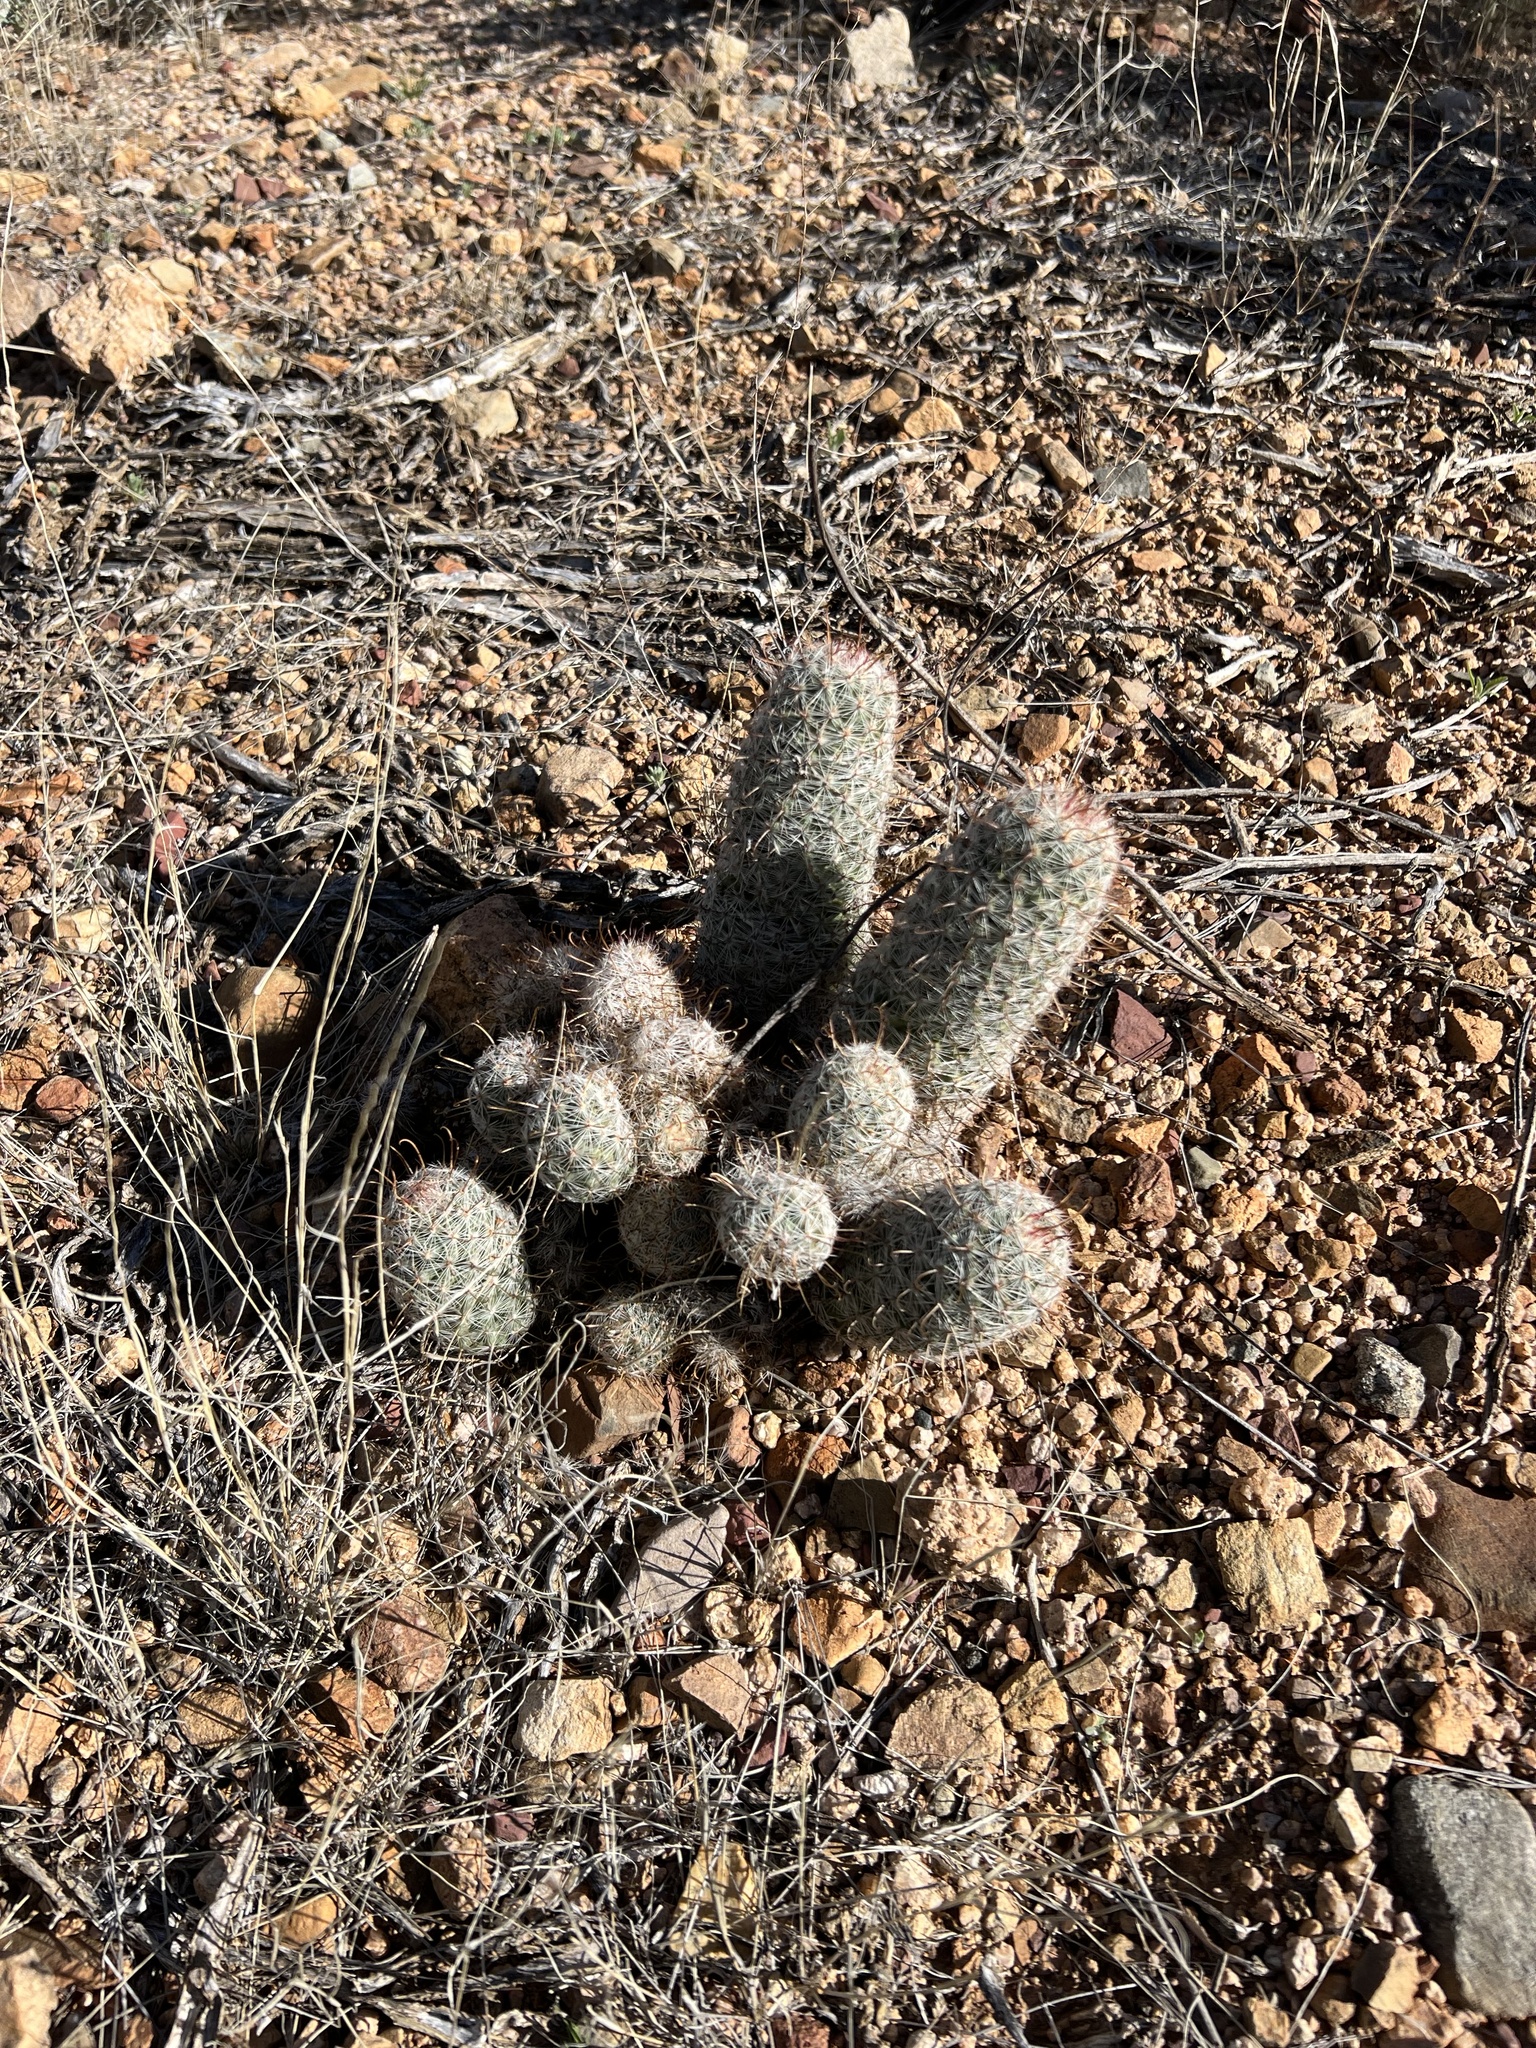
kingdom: Plantae
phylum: Tracheophyta
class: Magnoliopsida
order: Caryophyllales
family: Cactaceae
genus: Cochemiea
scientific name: Cochemiea grahamii
